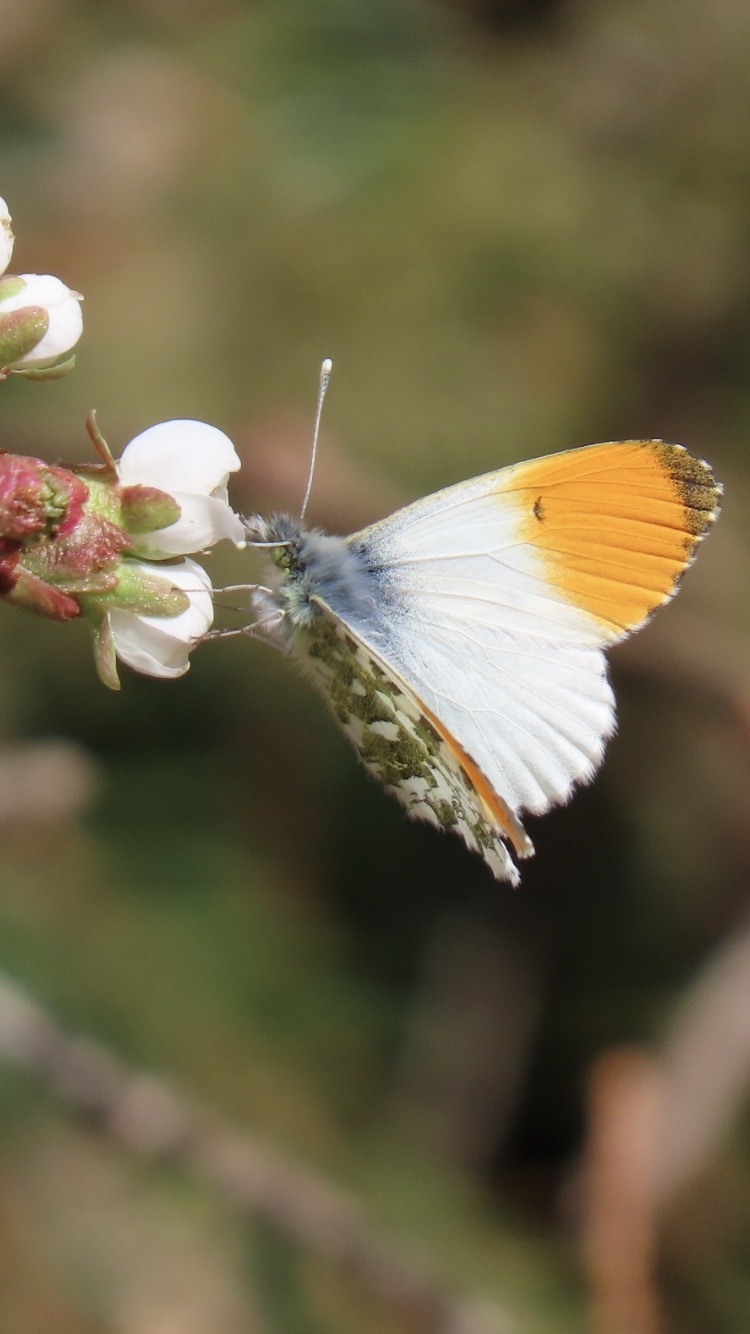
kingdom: Animalia
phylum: Arthropoda
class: Insecta
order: Lepidoptera
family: Pieridae
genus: Anthocharis
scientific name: Anthocharis cardamines
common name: Orange-tip
